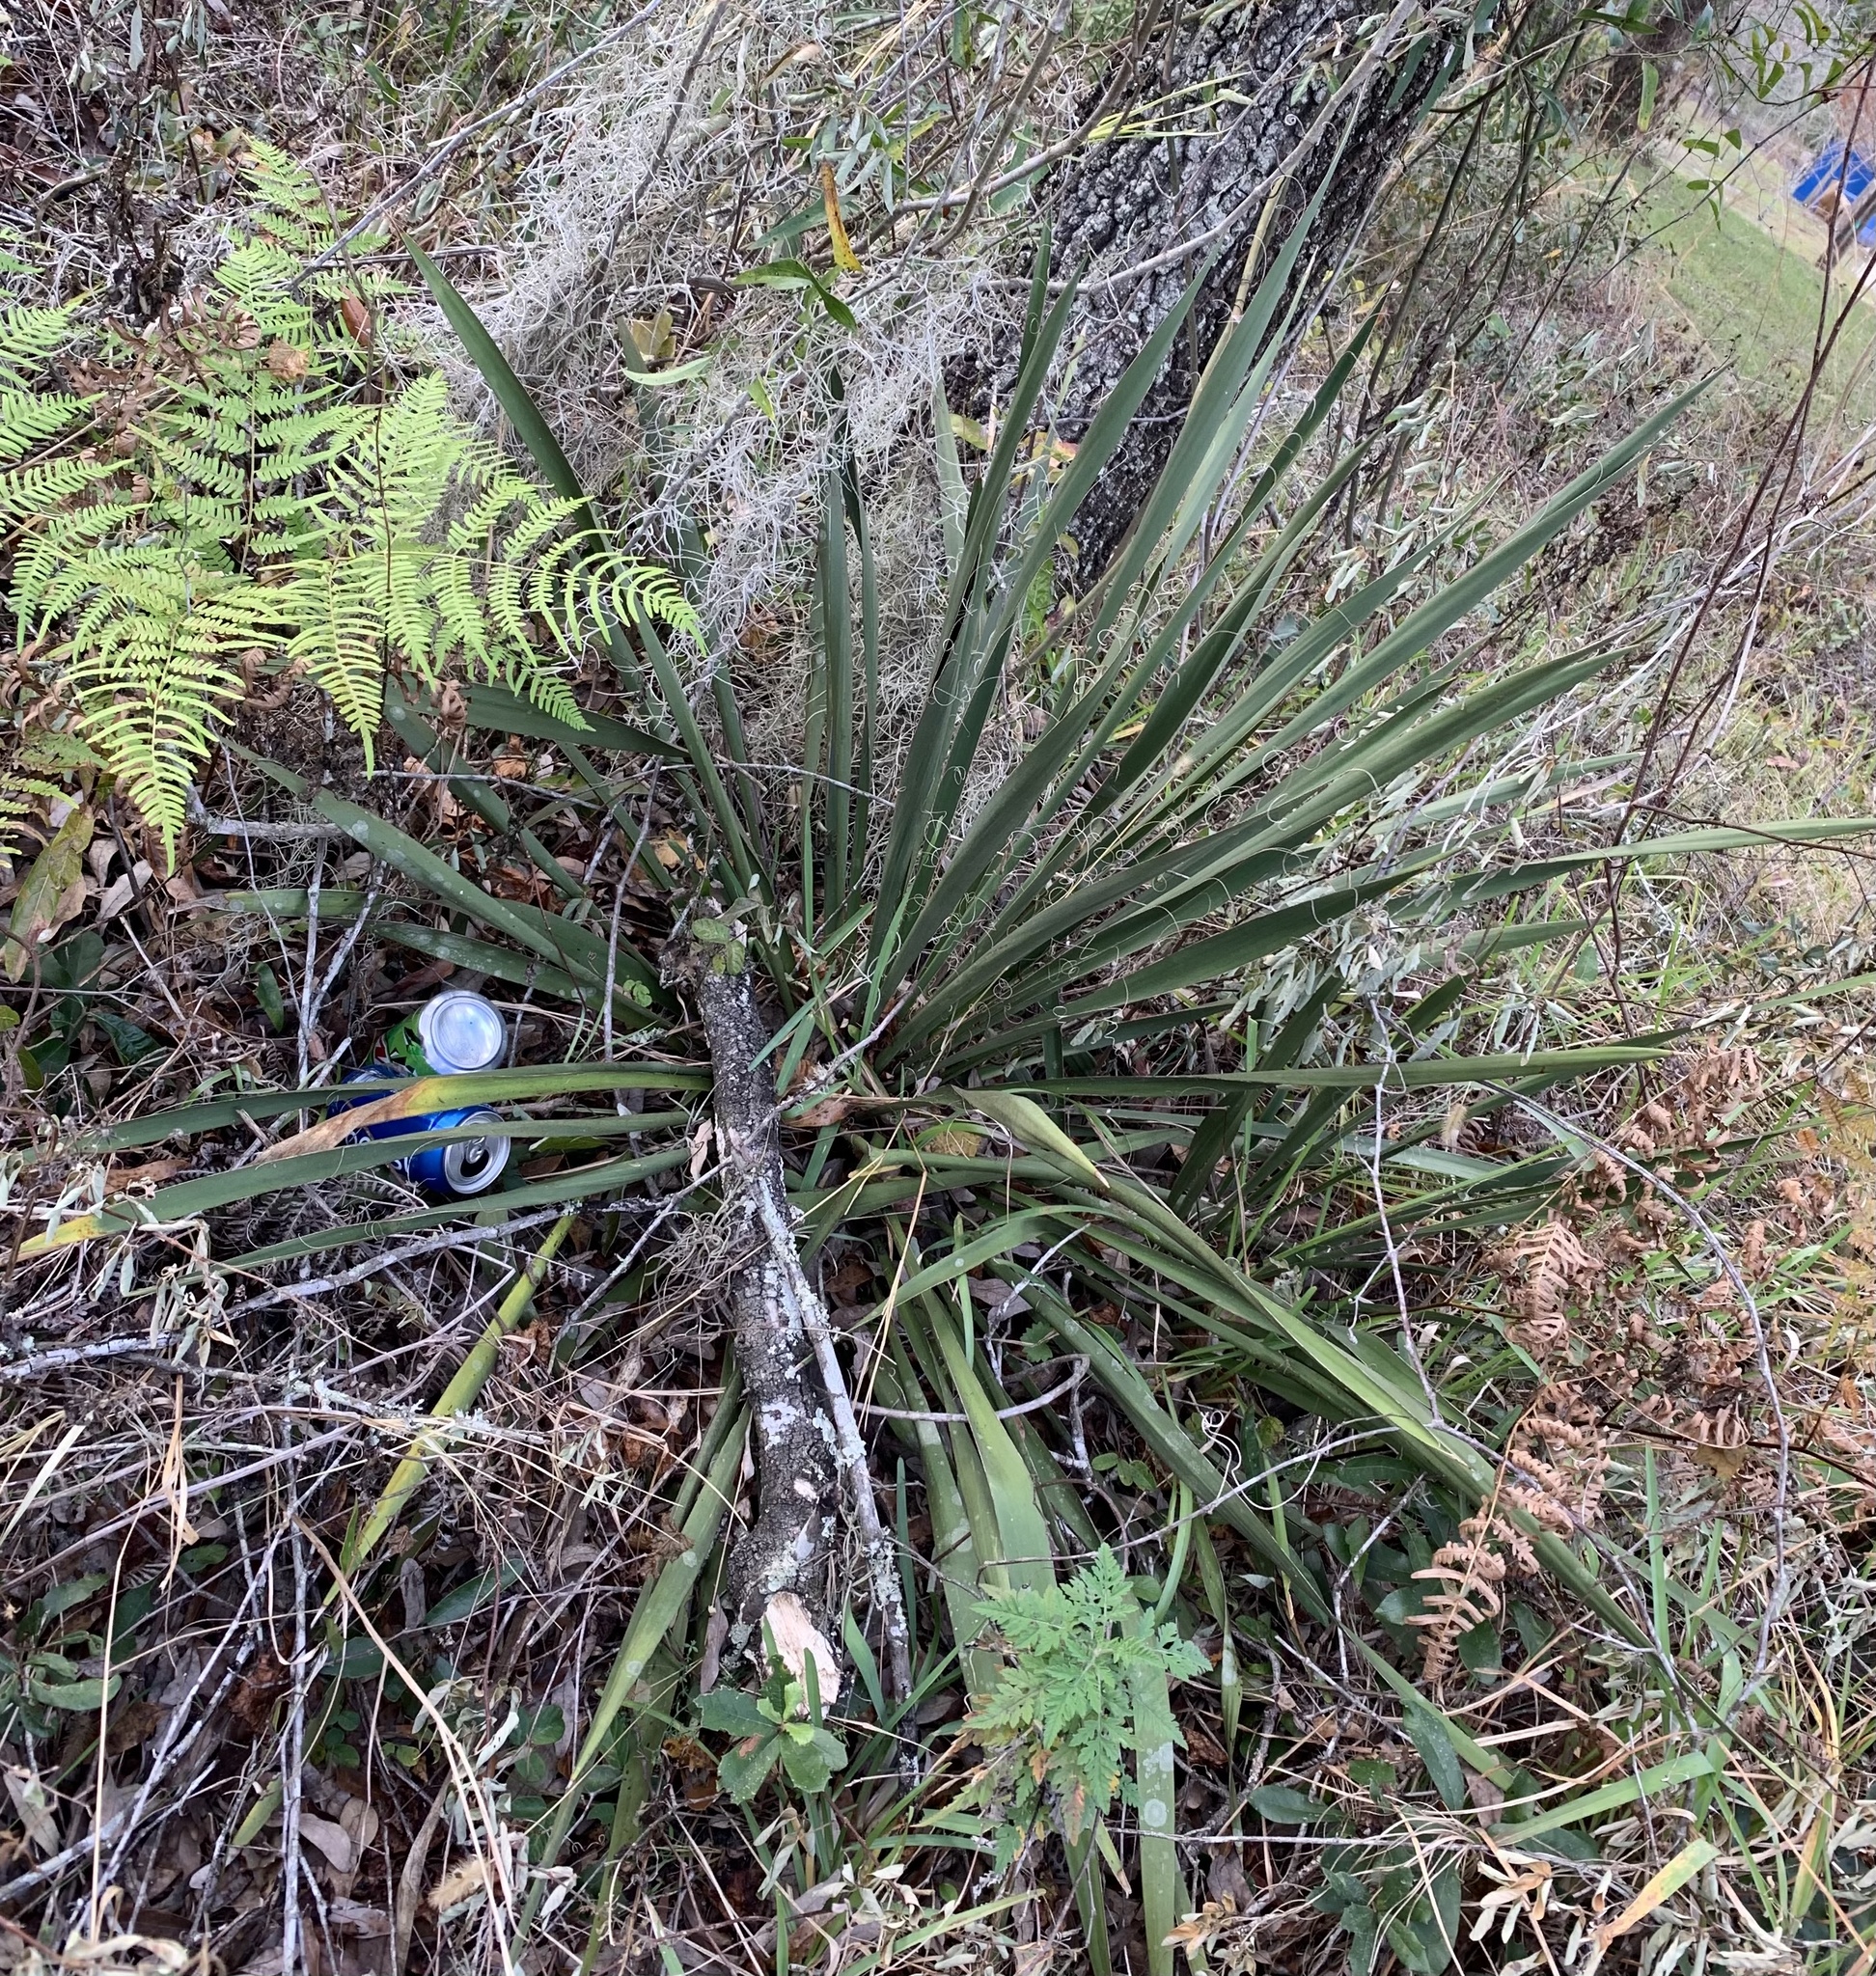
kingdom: Plantae
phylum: Tracheophyta
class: Liliopsida
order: Asparagales
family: Asparagaceae
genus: Yucca
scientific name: Yucca filamentosa
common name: Adam's-needle
